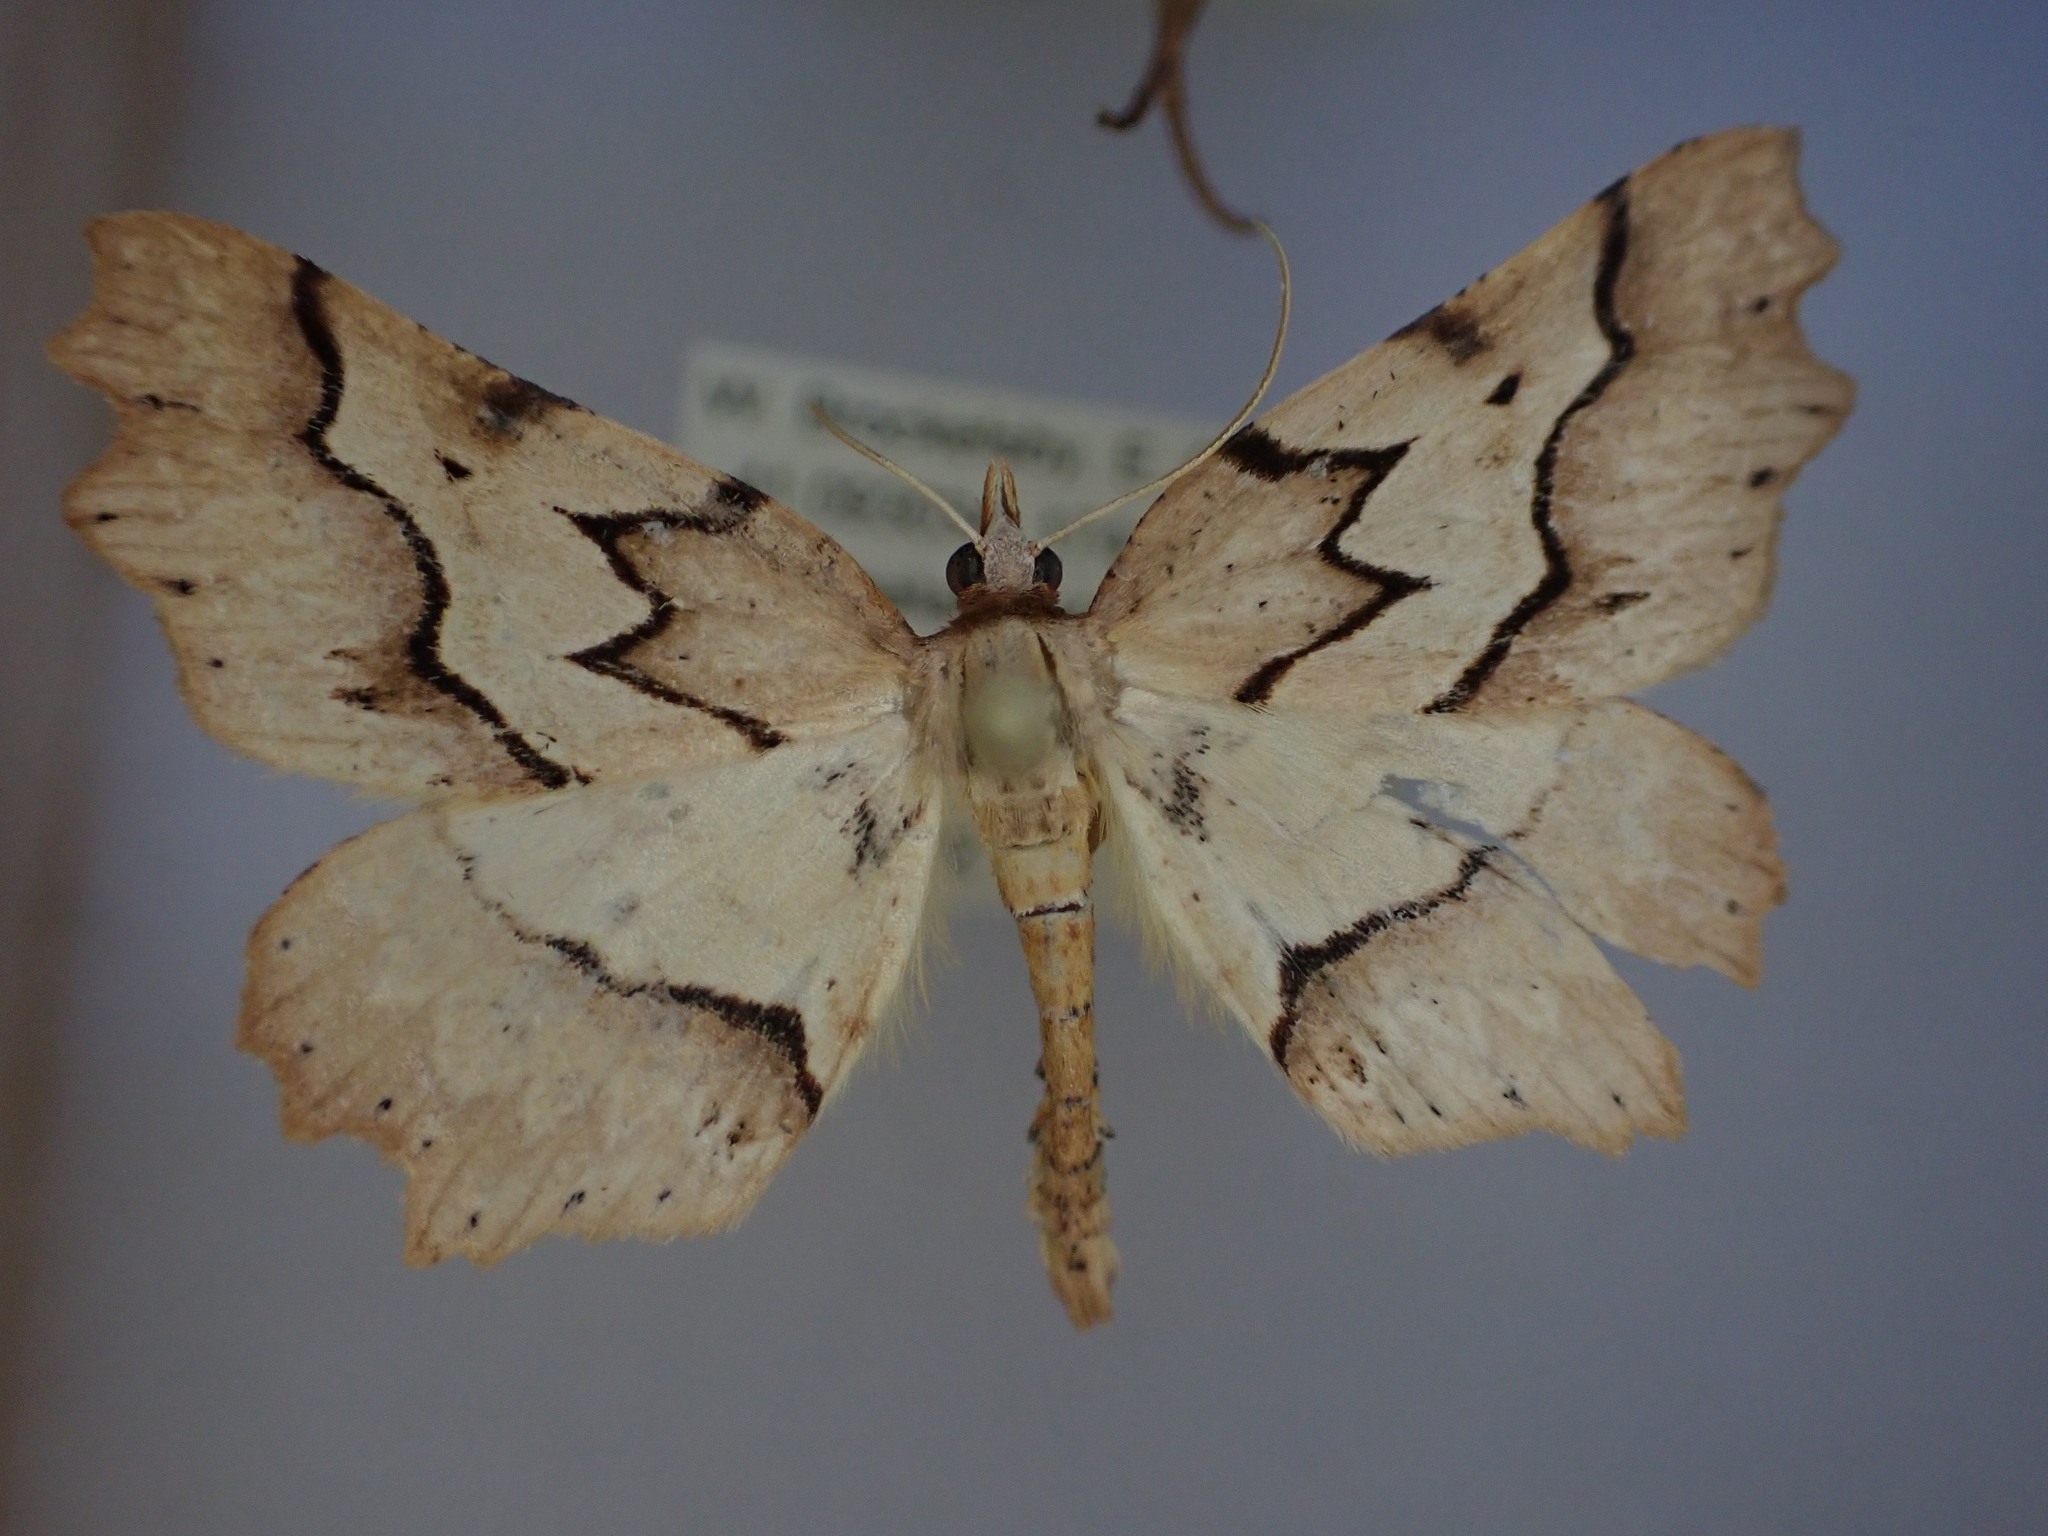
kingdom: Animalia
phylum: Arthropoda
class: Insecta
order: Lepidoptera
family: Geometridae
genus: Ischalis
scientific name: Ischalis fortinata
